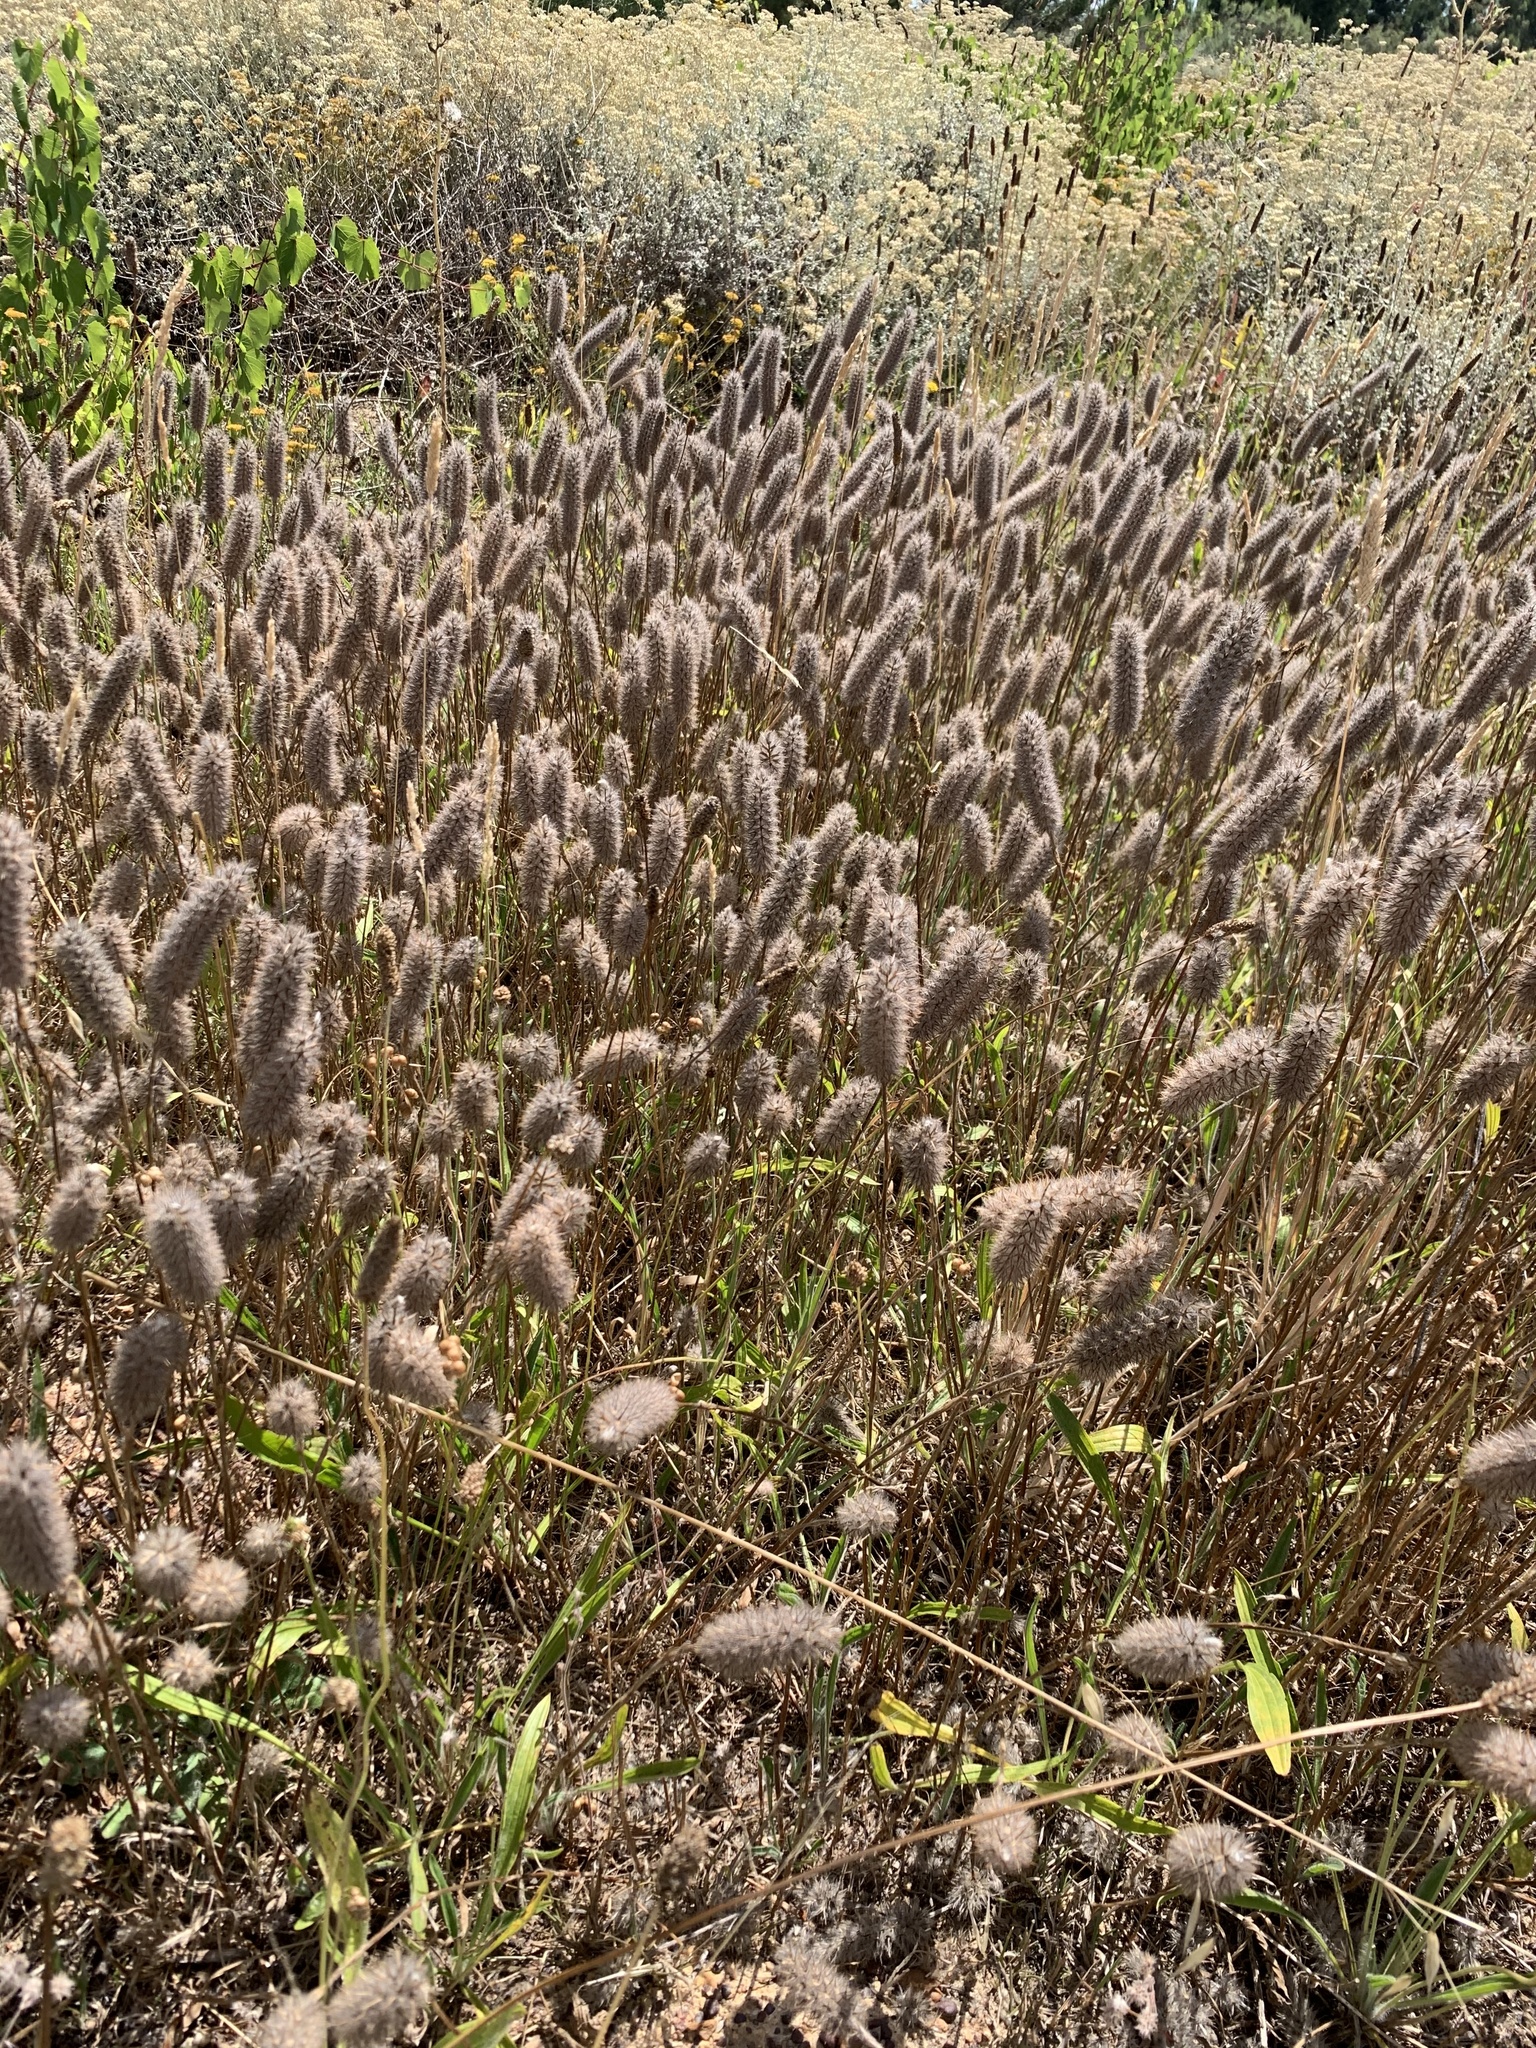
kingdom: Plantae
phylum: Tracheophyta
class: Magnoliopsida
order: Fabales
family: Fabaceae
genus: Trifolium
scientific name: Trifolium angustifolium
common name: Narrow clover
